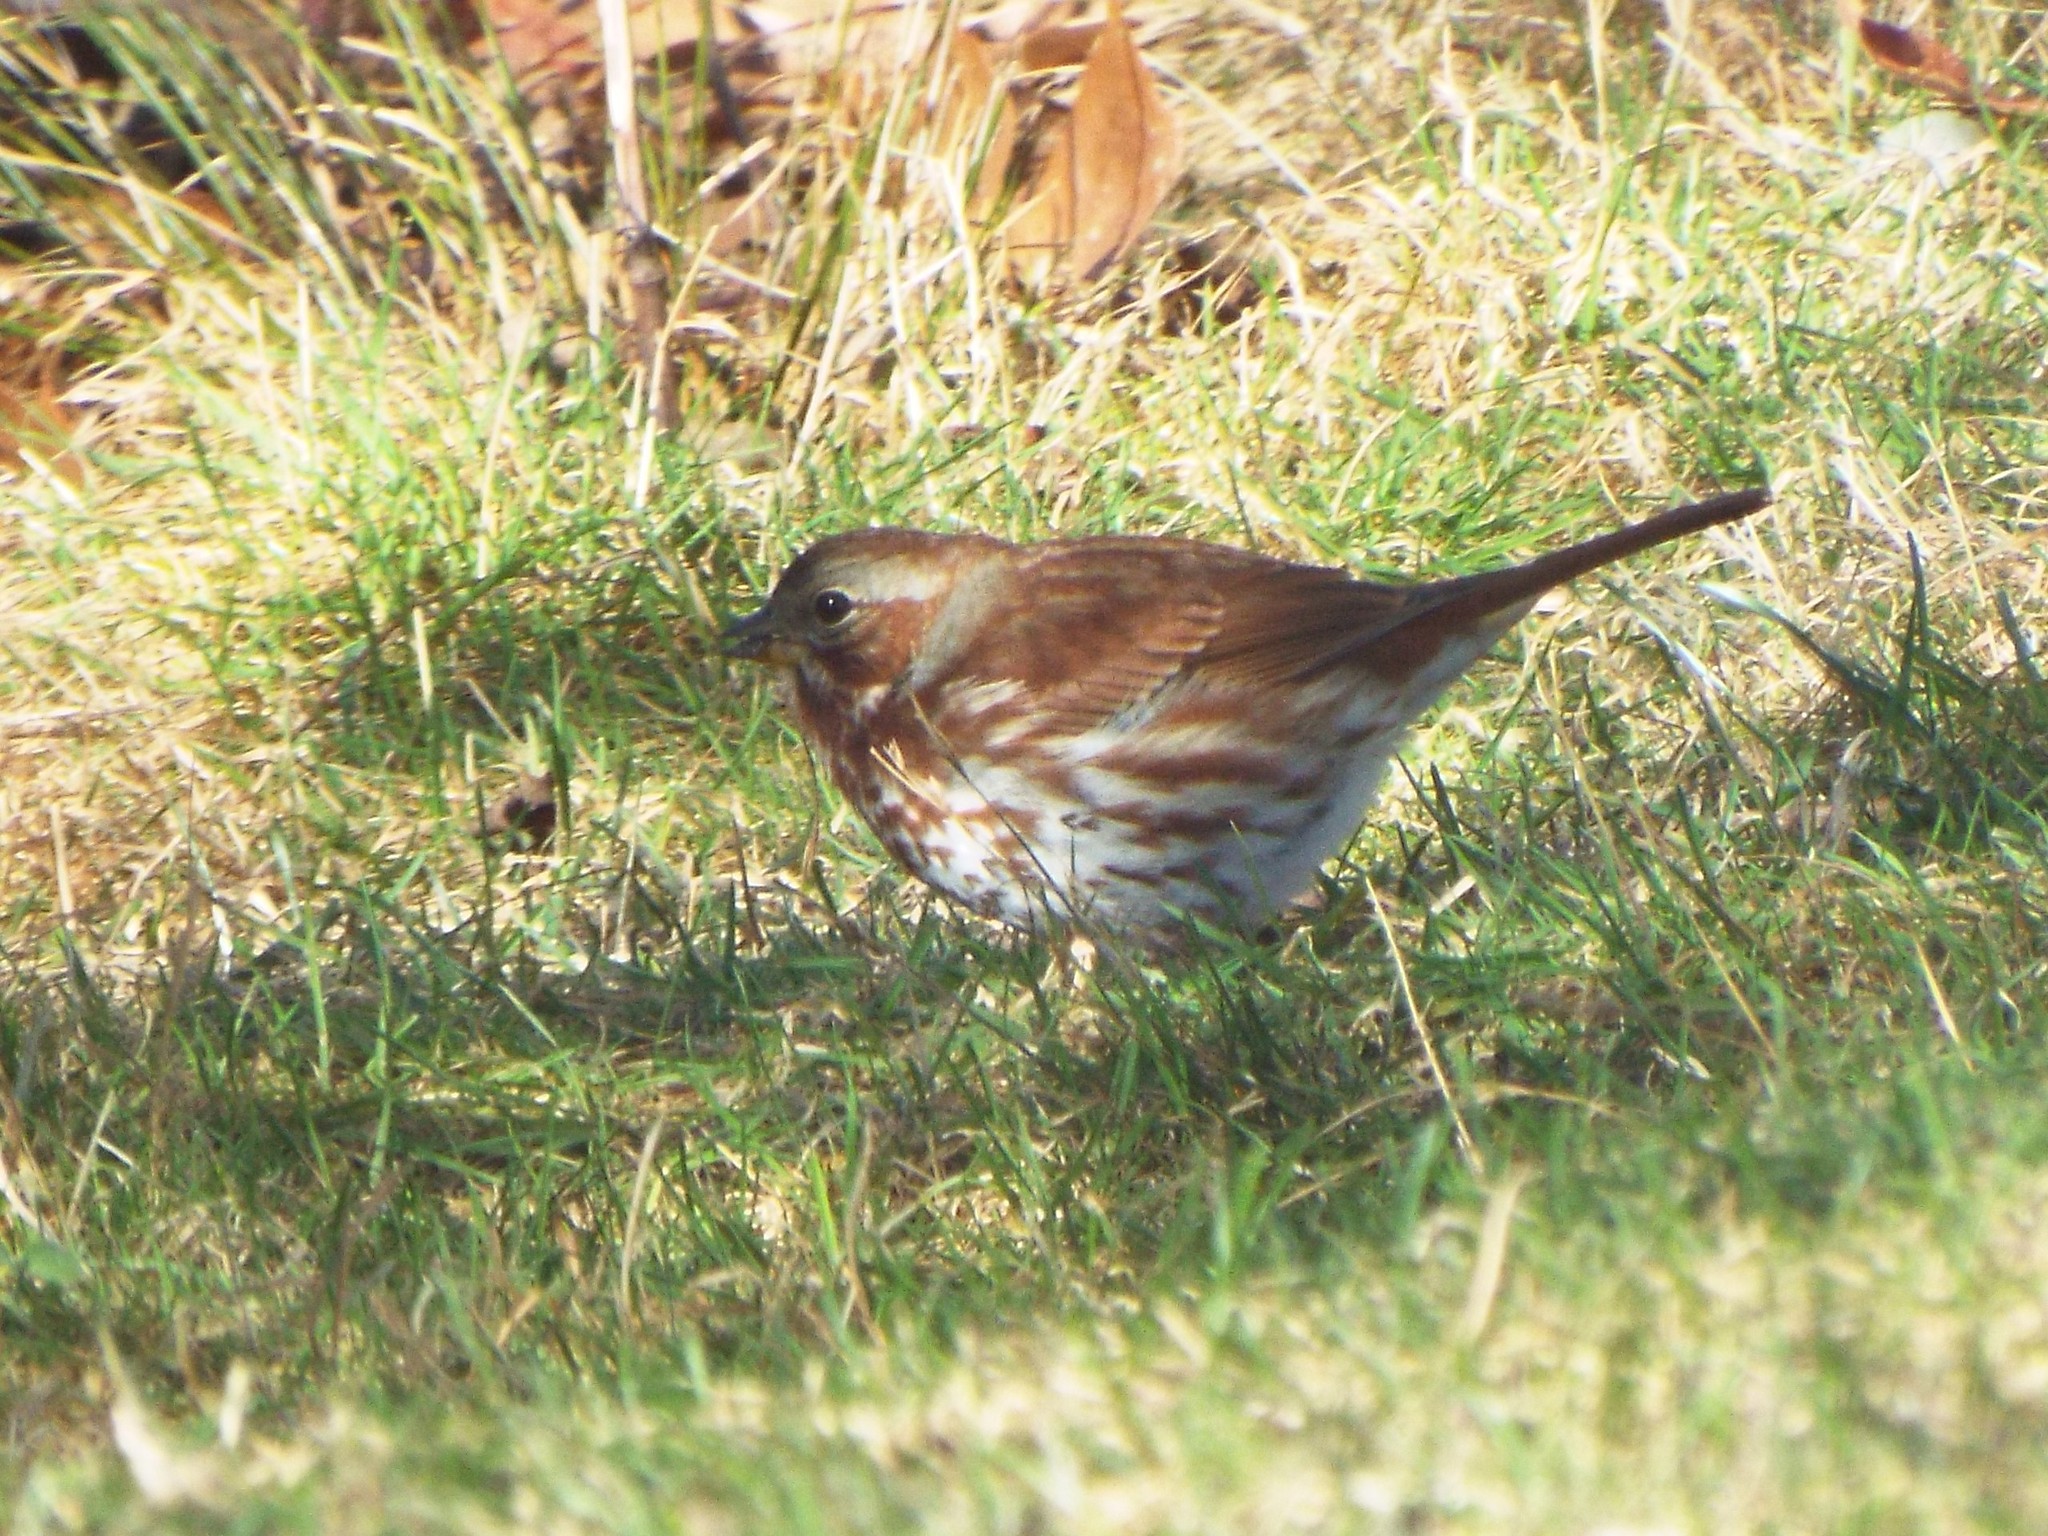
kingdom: Animalia
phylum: Chordata
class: Aves
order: Passeriformes
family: Passerellidae
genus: Passerella
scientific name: Passerella iliaca
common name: Fox sparrow
